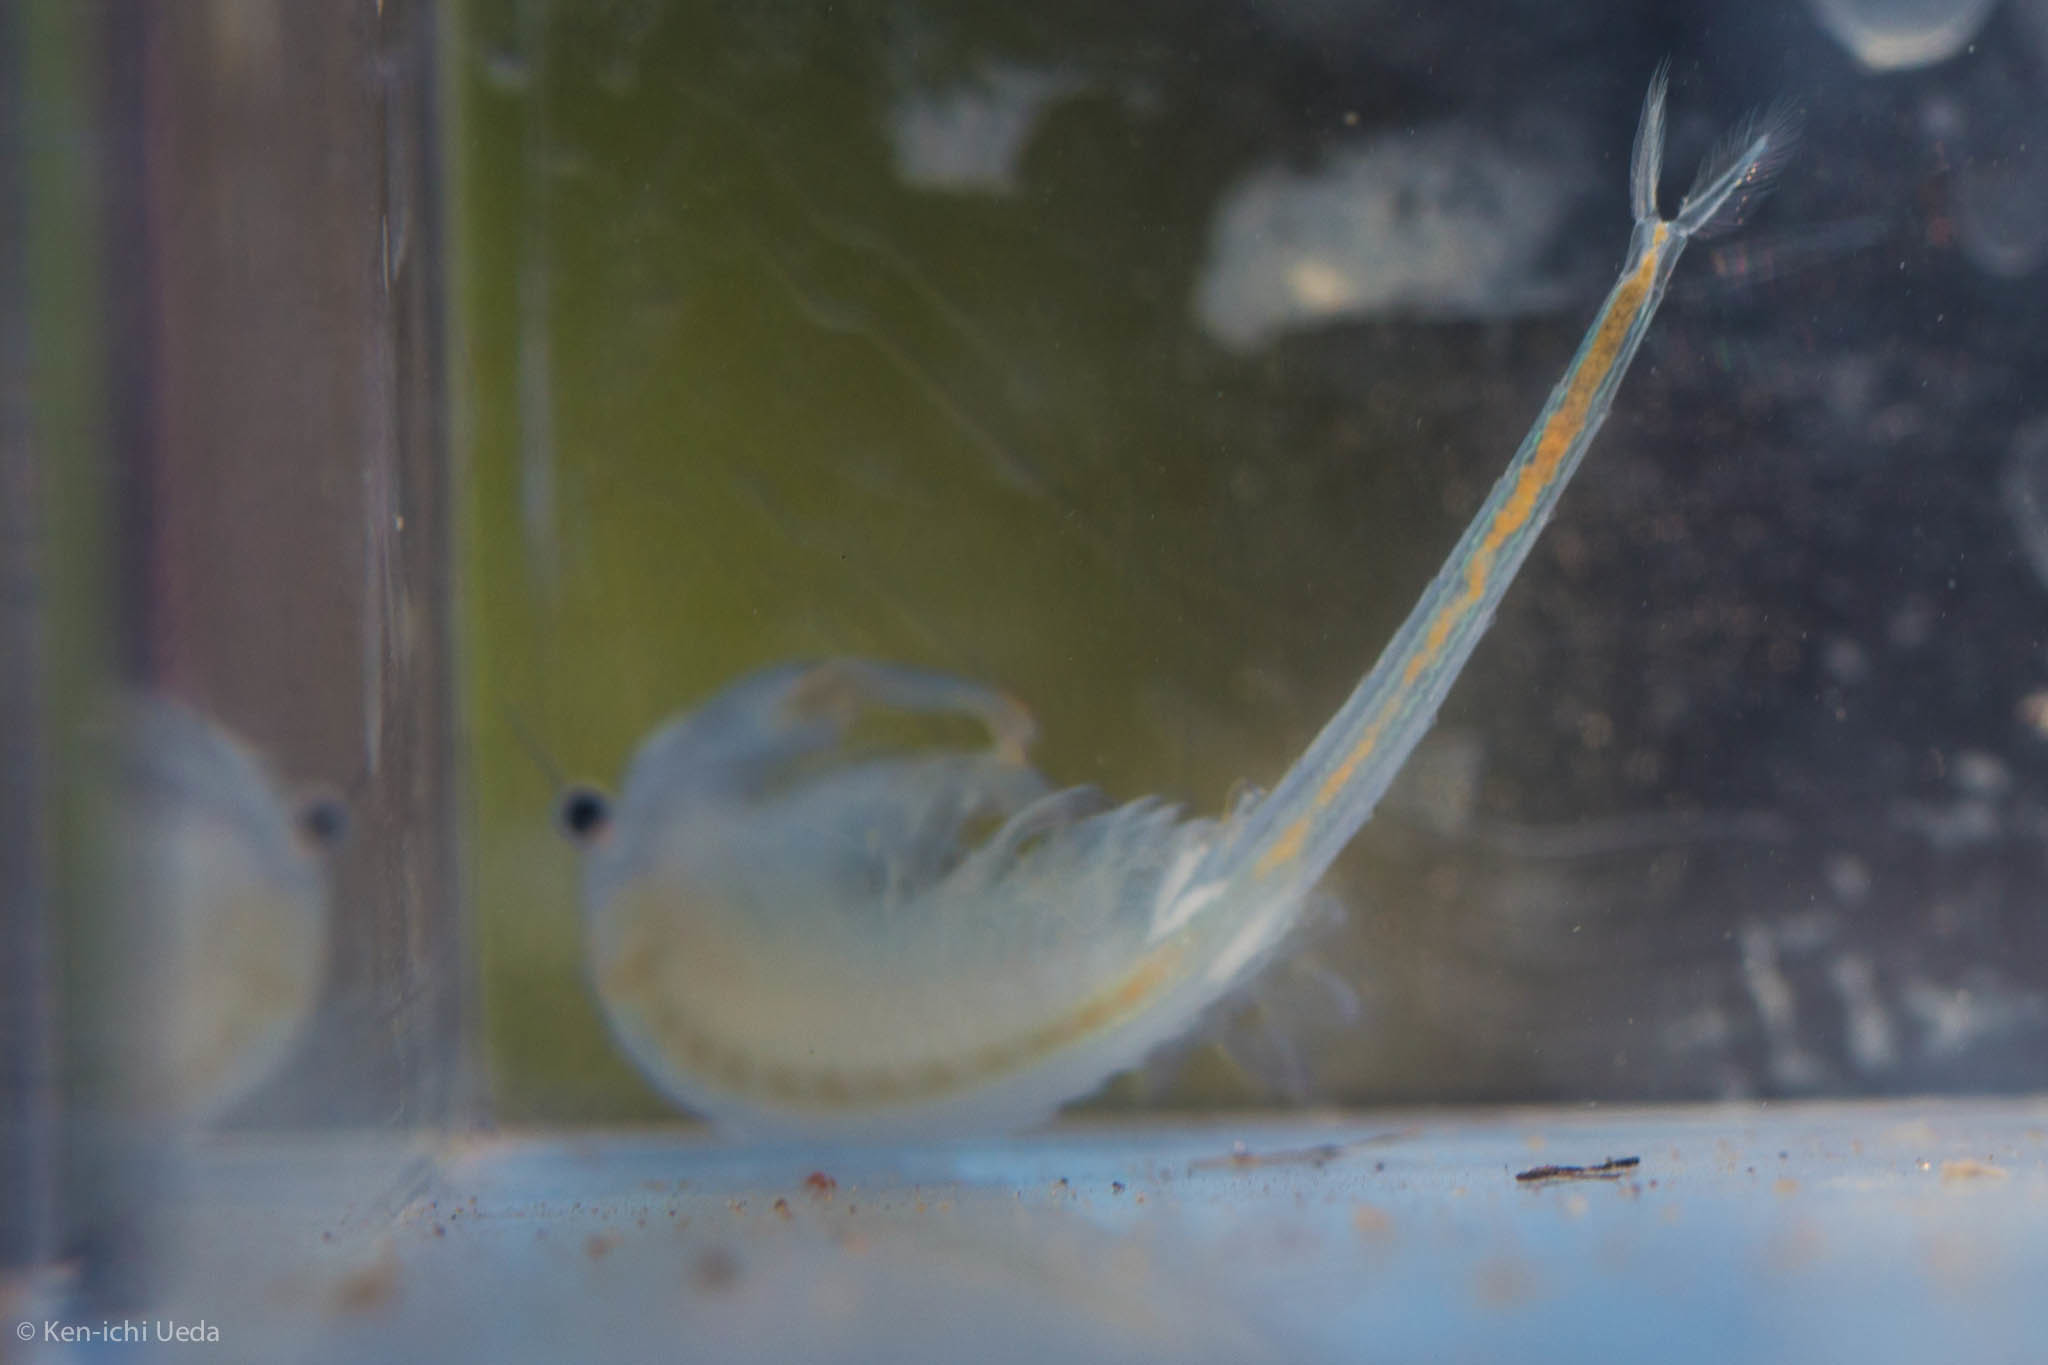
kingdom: Animalia
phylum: Arthropoda
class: Branchiopoda
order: Anostraca
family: Branchinectidae
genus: Branchinecta
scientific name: Branchinecta conservatio
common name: Conservancy fairy shrimp
